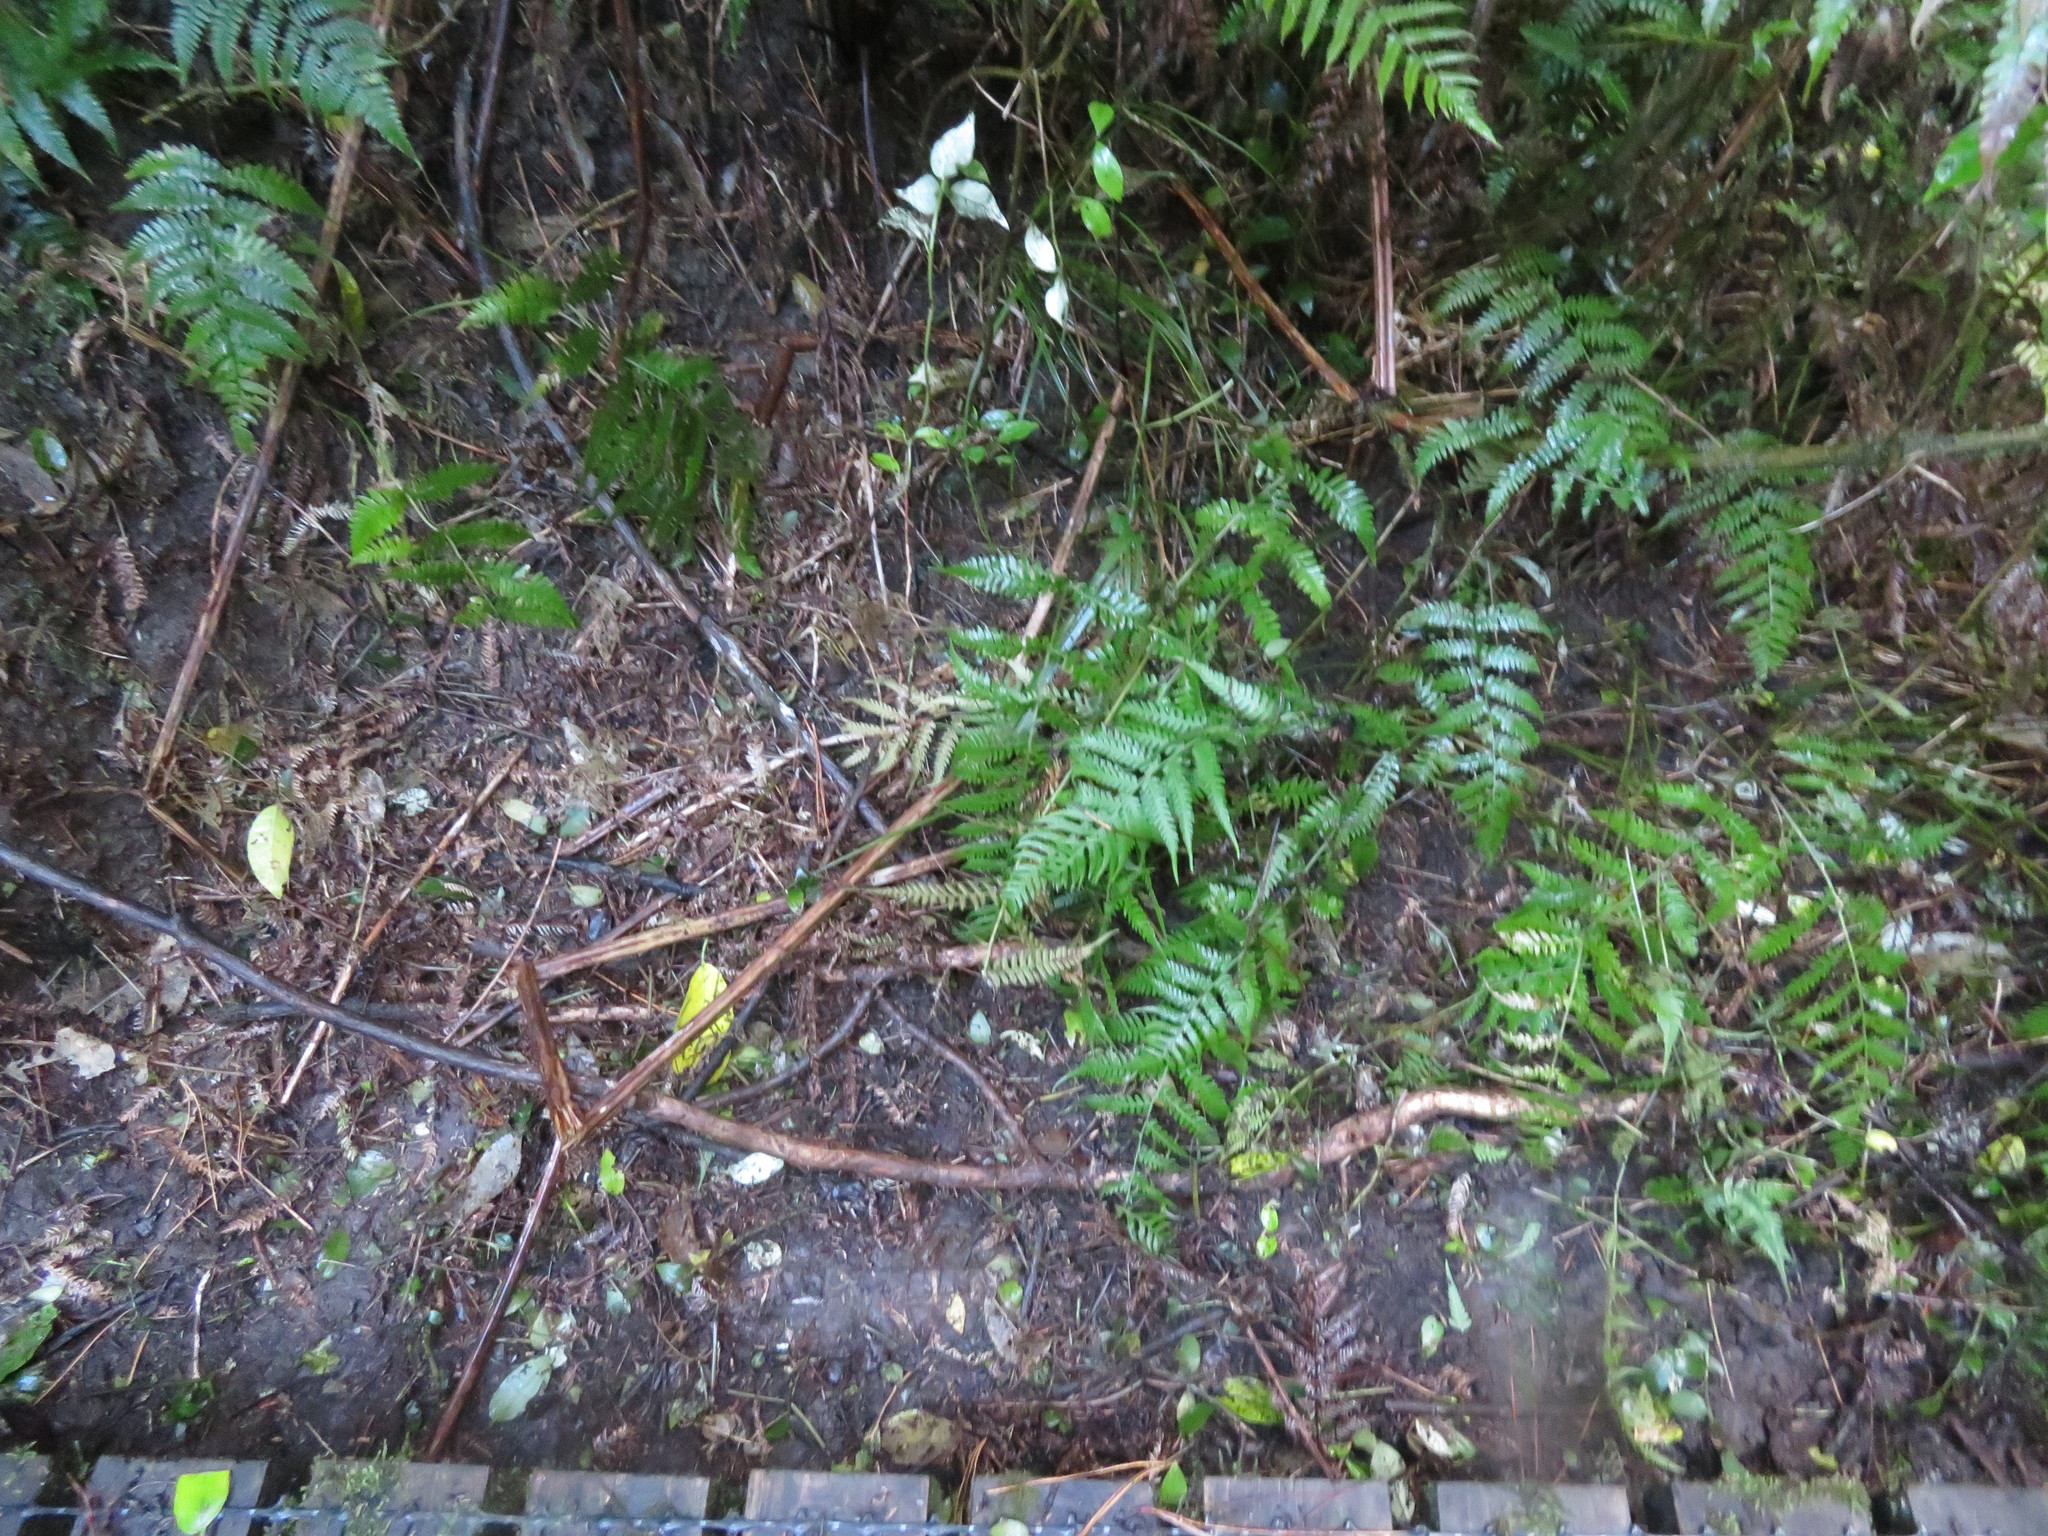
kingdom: Plantae
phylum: Tracheophyta
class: Magnoliopsida
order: Gentianales
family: Loganiaceae
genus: Geniostoma
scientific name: Geniostoma ligustrifolium
